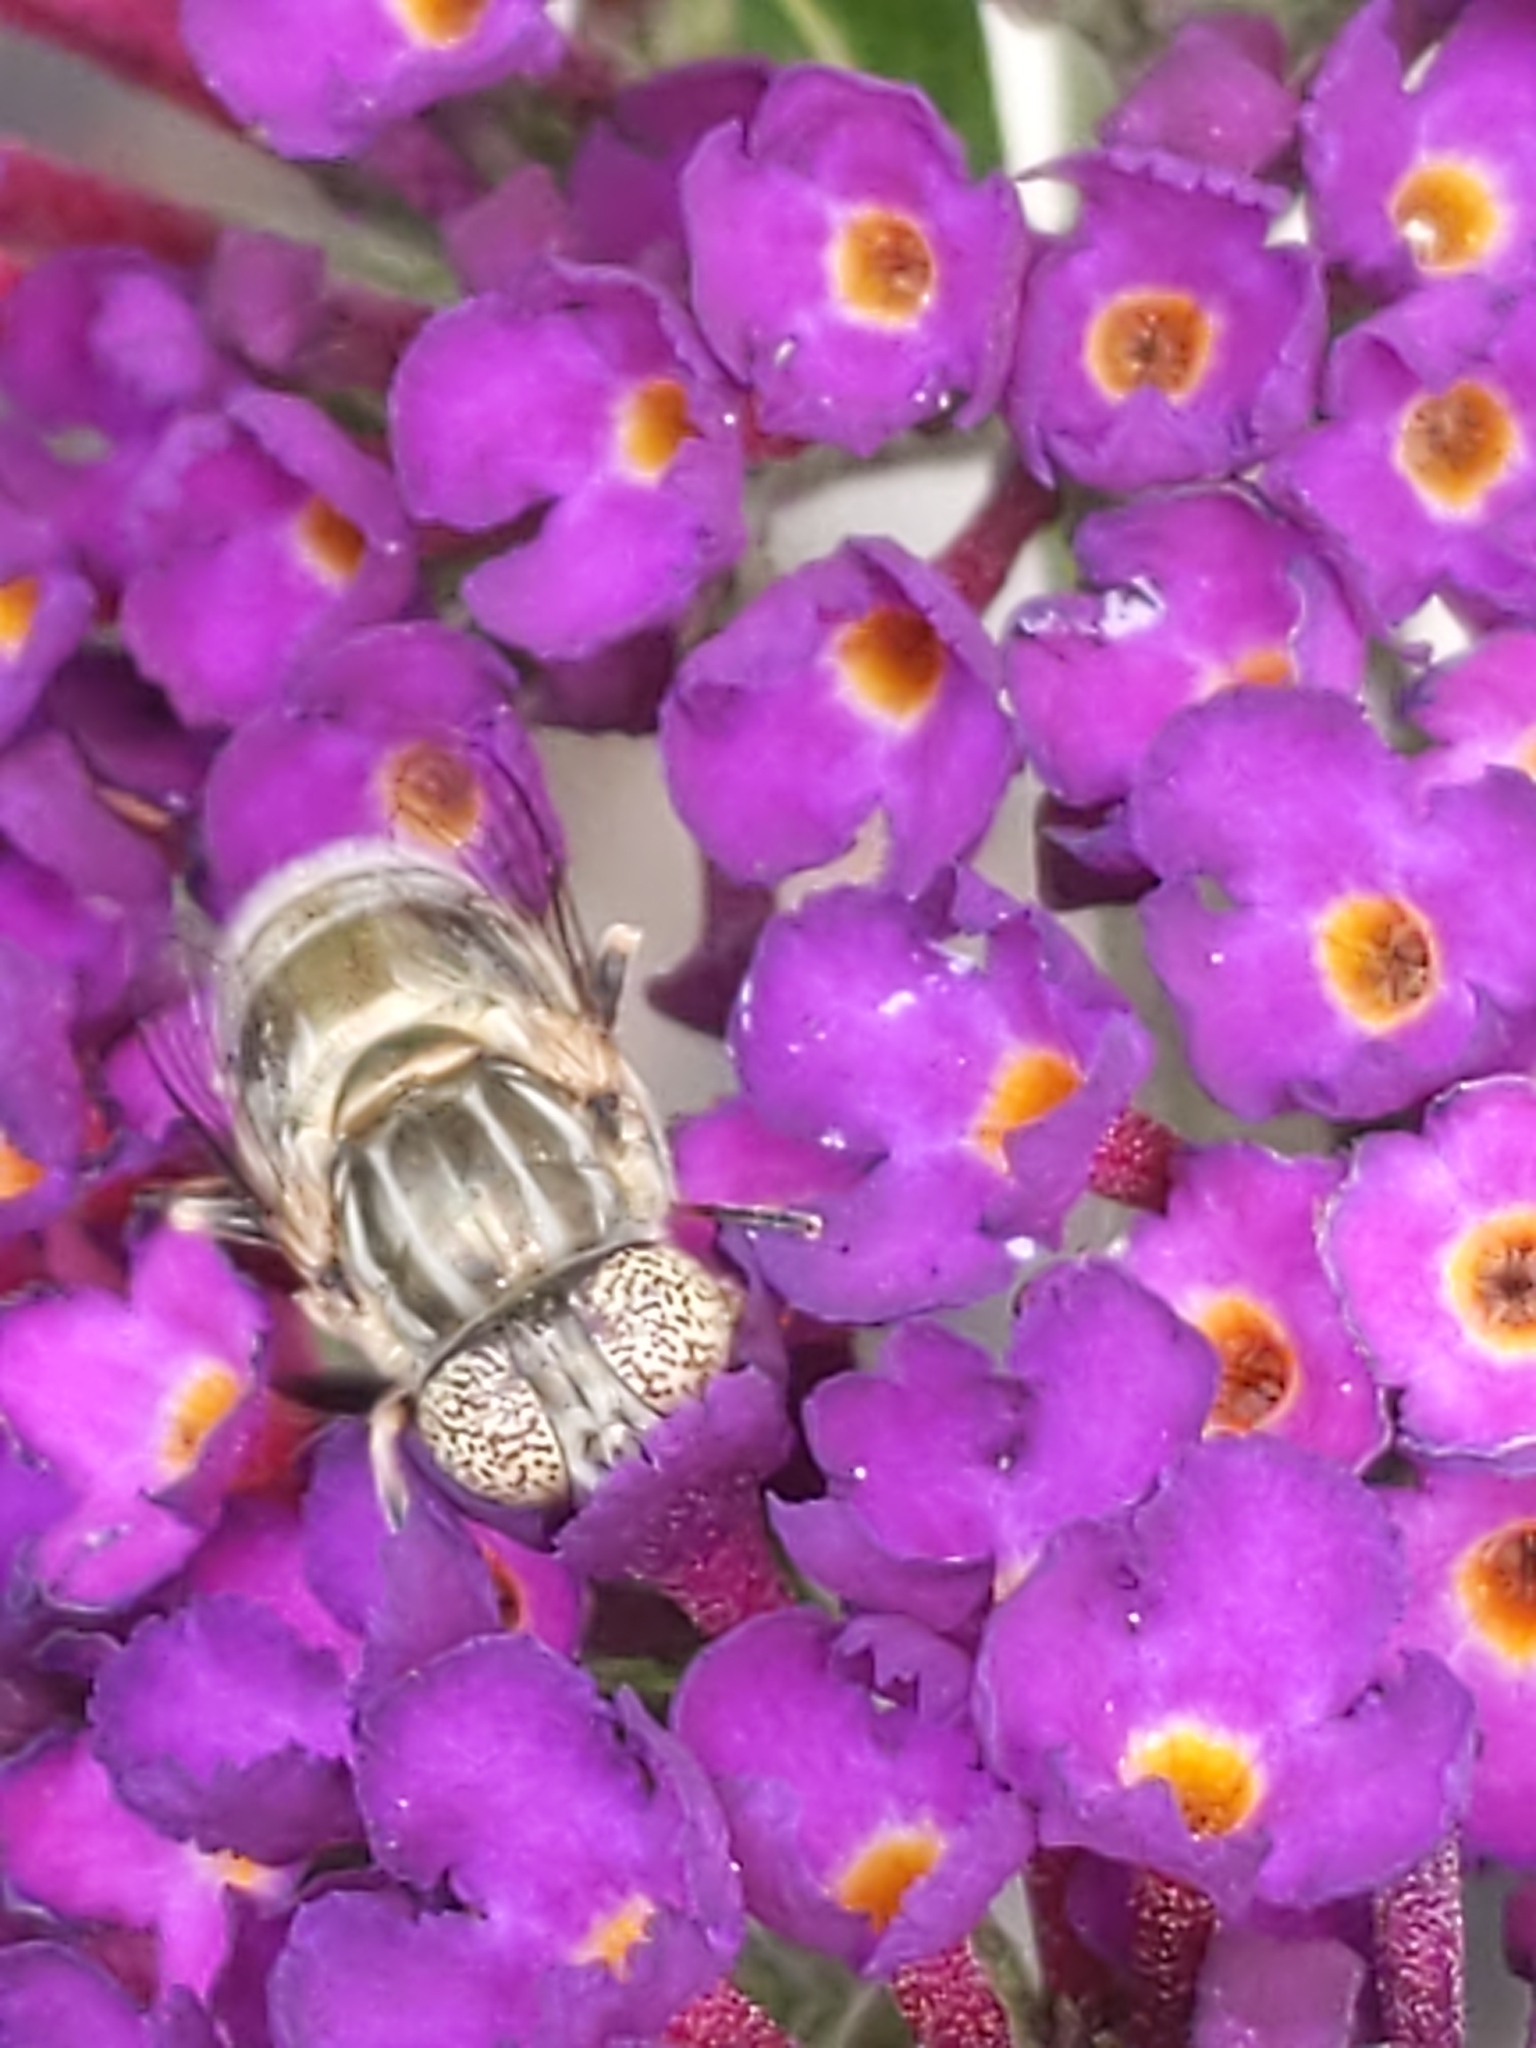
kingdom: Animalia
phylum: Arthropoda
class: Insecta
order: Diptera
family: Syrphidae
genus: Eristalinus
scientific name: Eristalinus aeneus
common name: Syrphid fly
